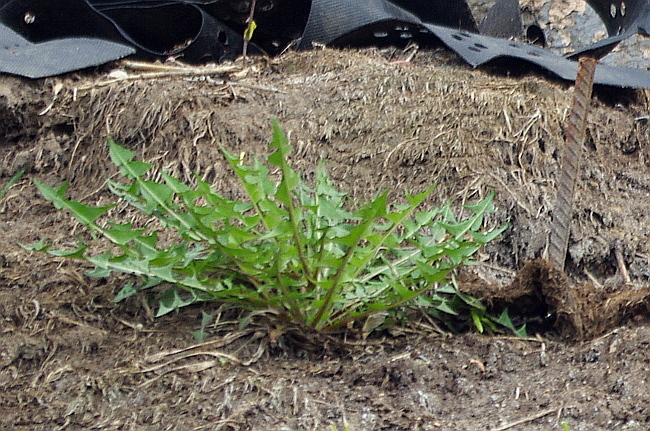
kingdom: Plantae
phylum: Tracheophyta
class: Magnoliopsida
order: Asterales
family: Asteraceae
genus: Taraxacum
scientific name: Taraxacum officinale
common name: Common dandelion
